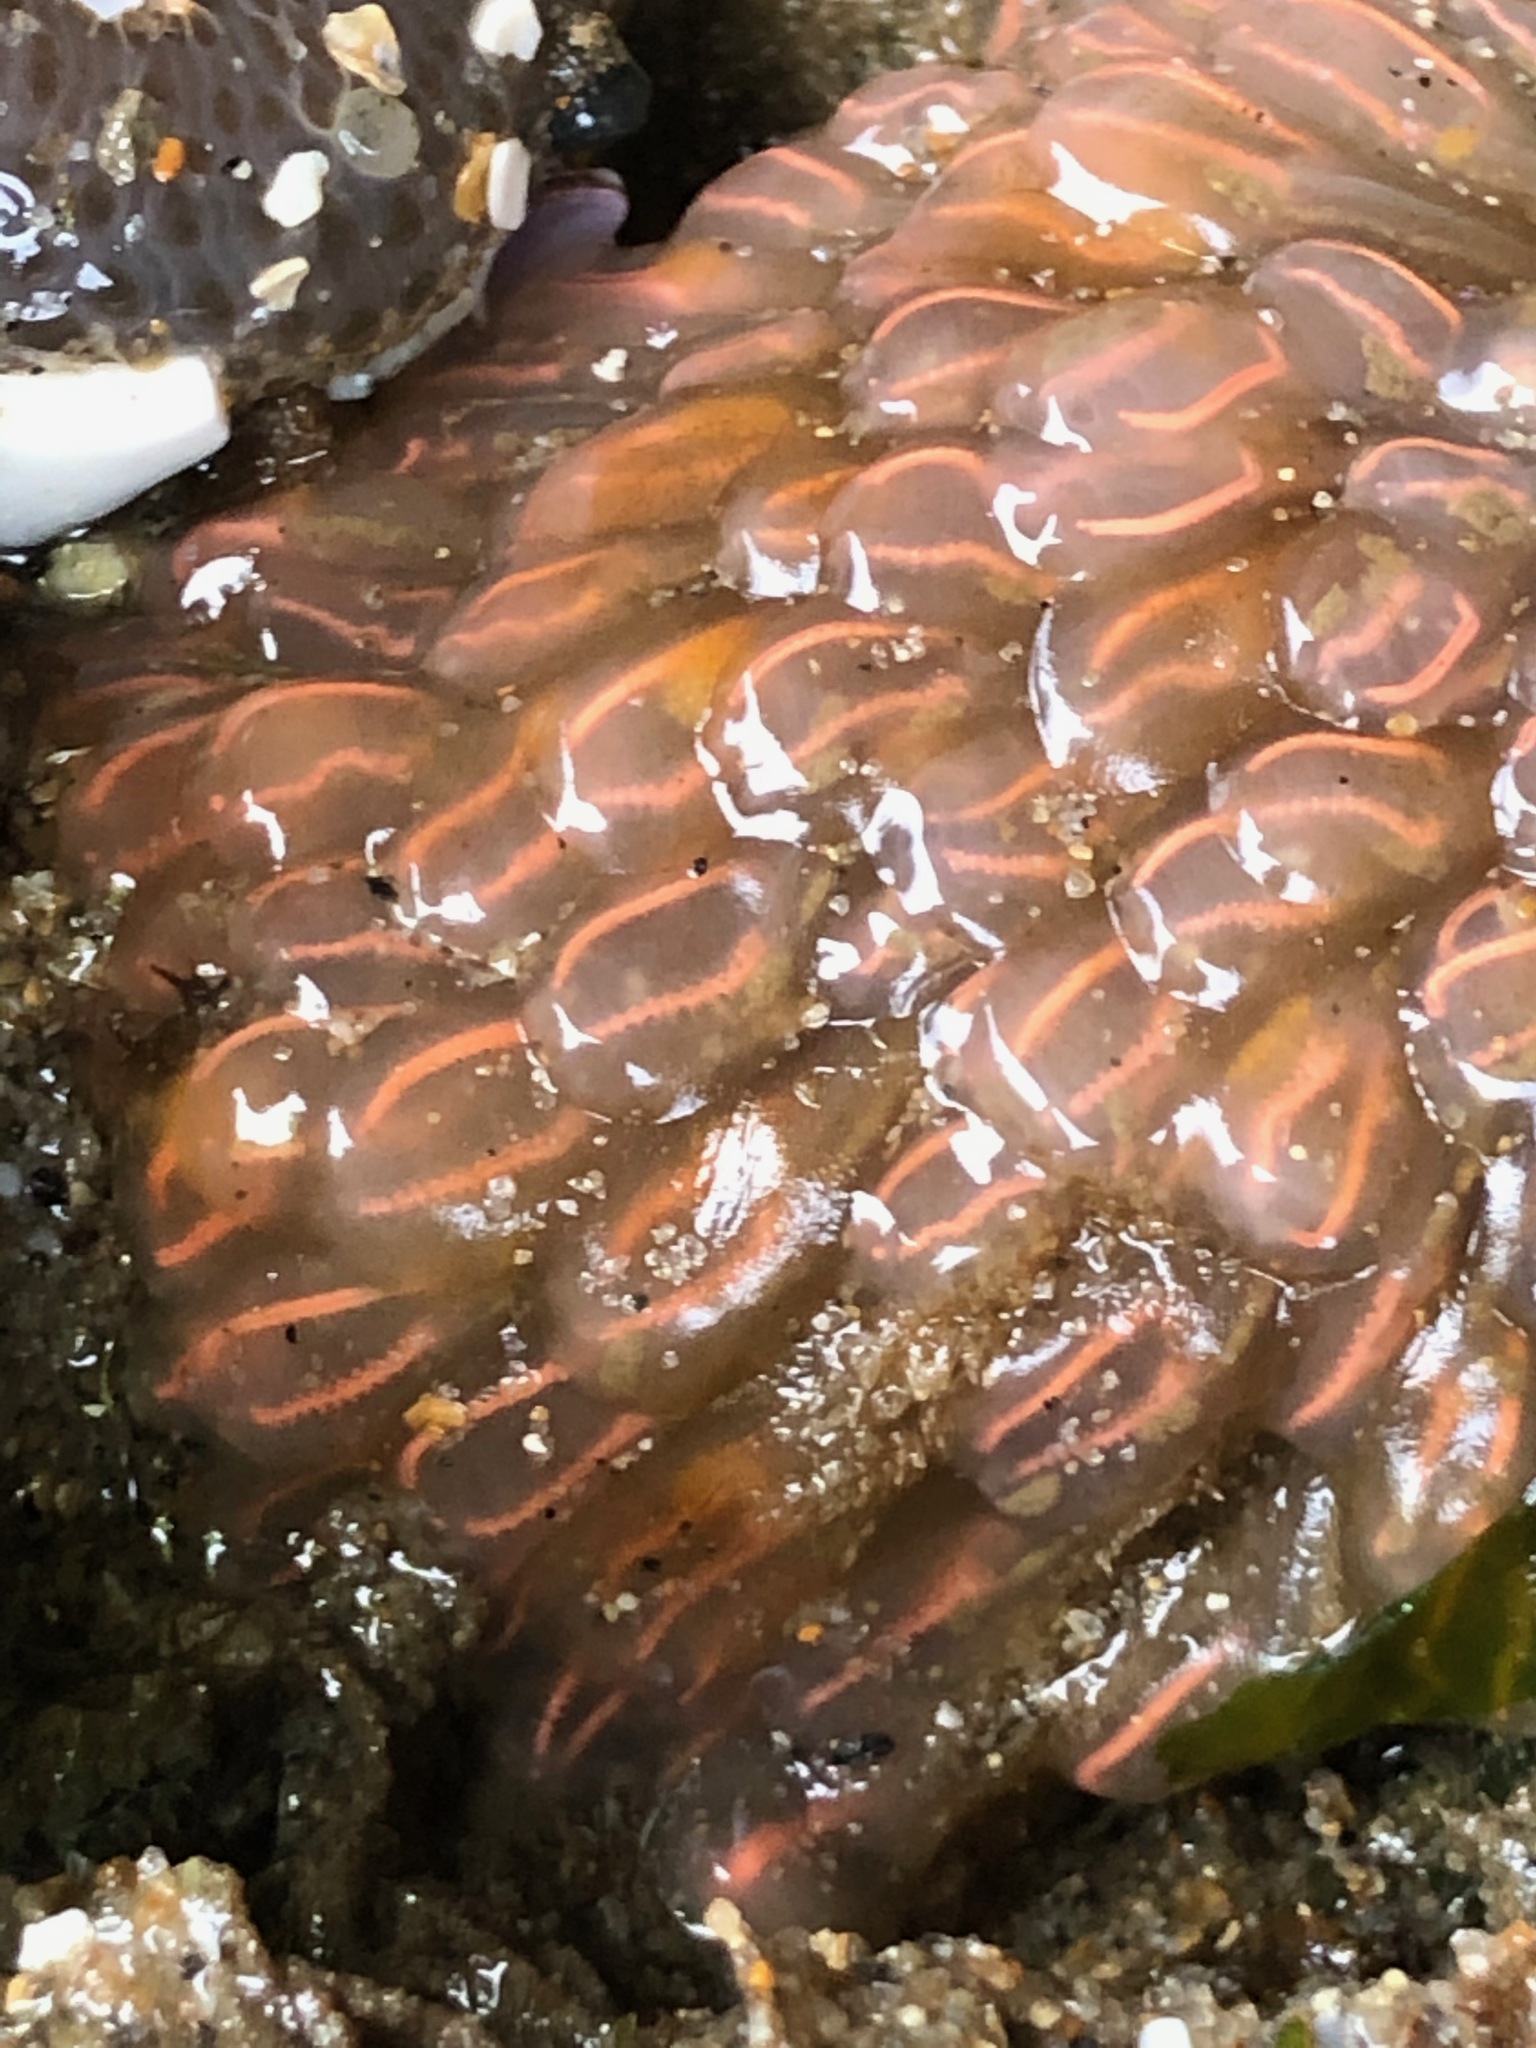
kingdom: Animalia
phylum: Chordata
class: Ascidiacea
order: Aplousobranchia
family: Clavelinidae
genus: Clavelina
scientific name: Clavelina huntsmani
